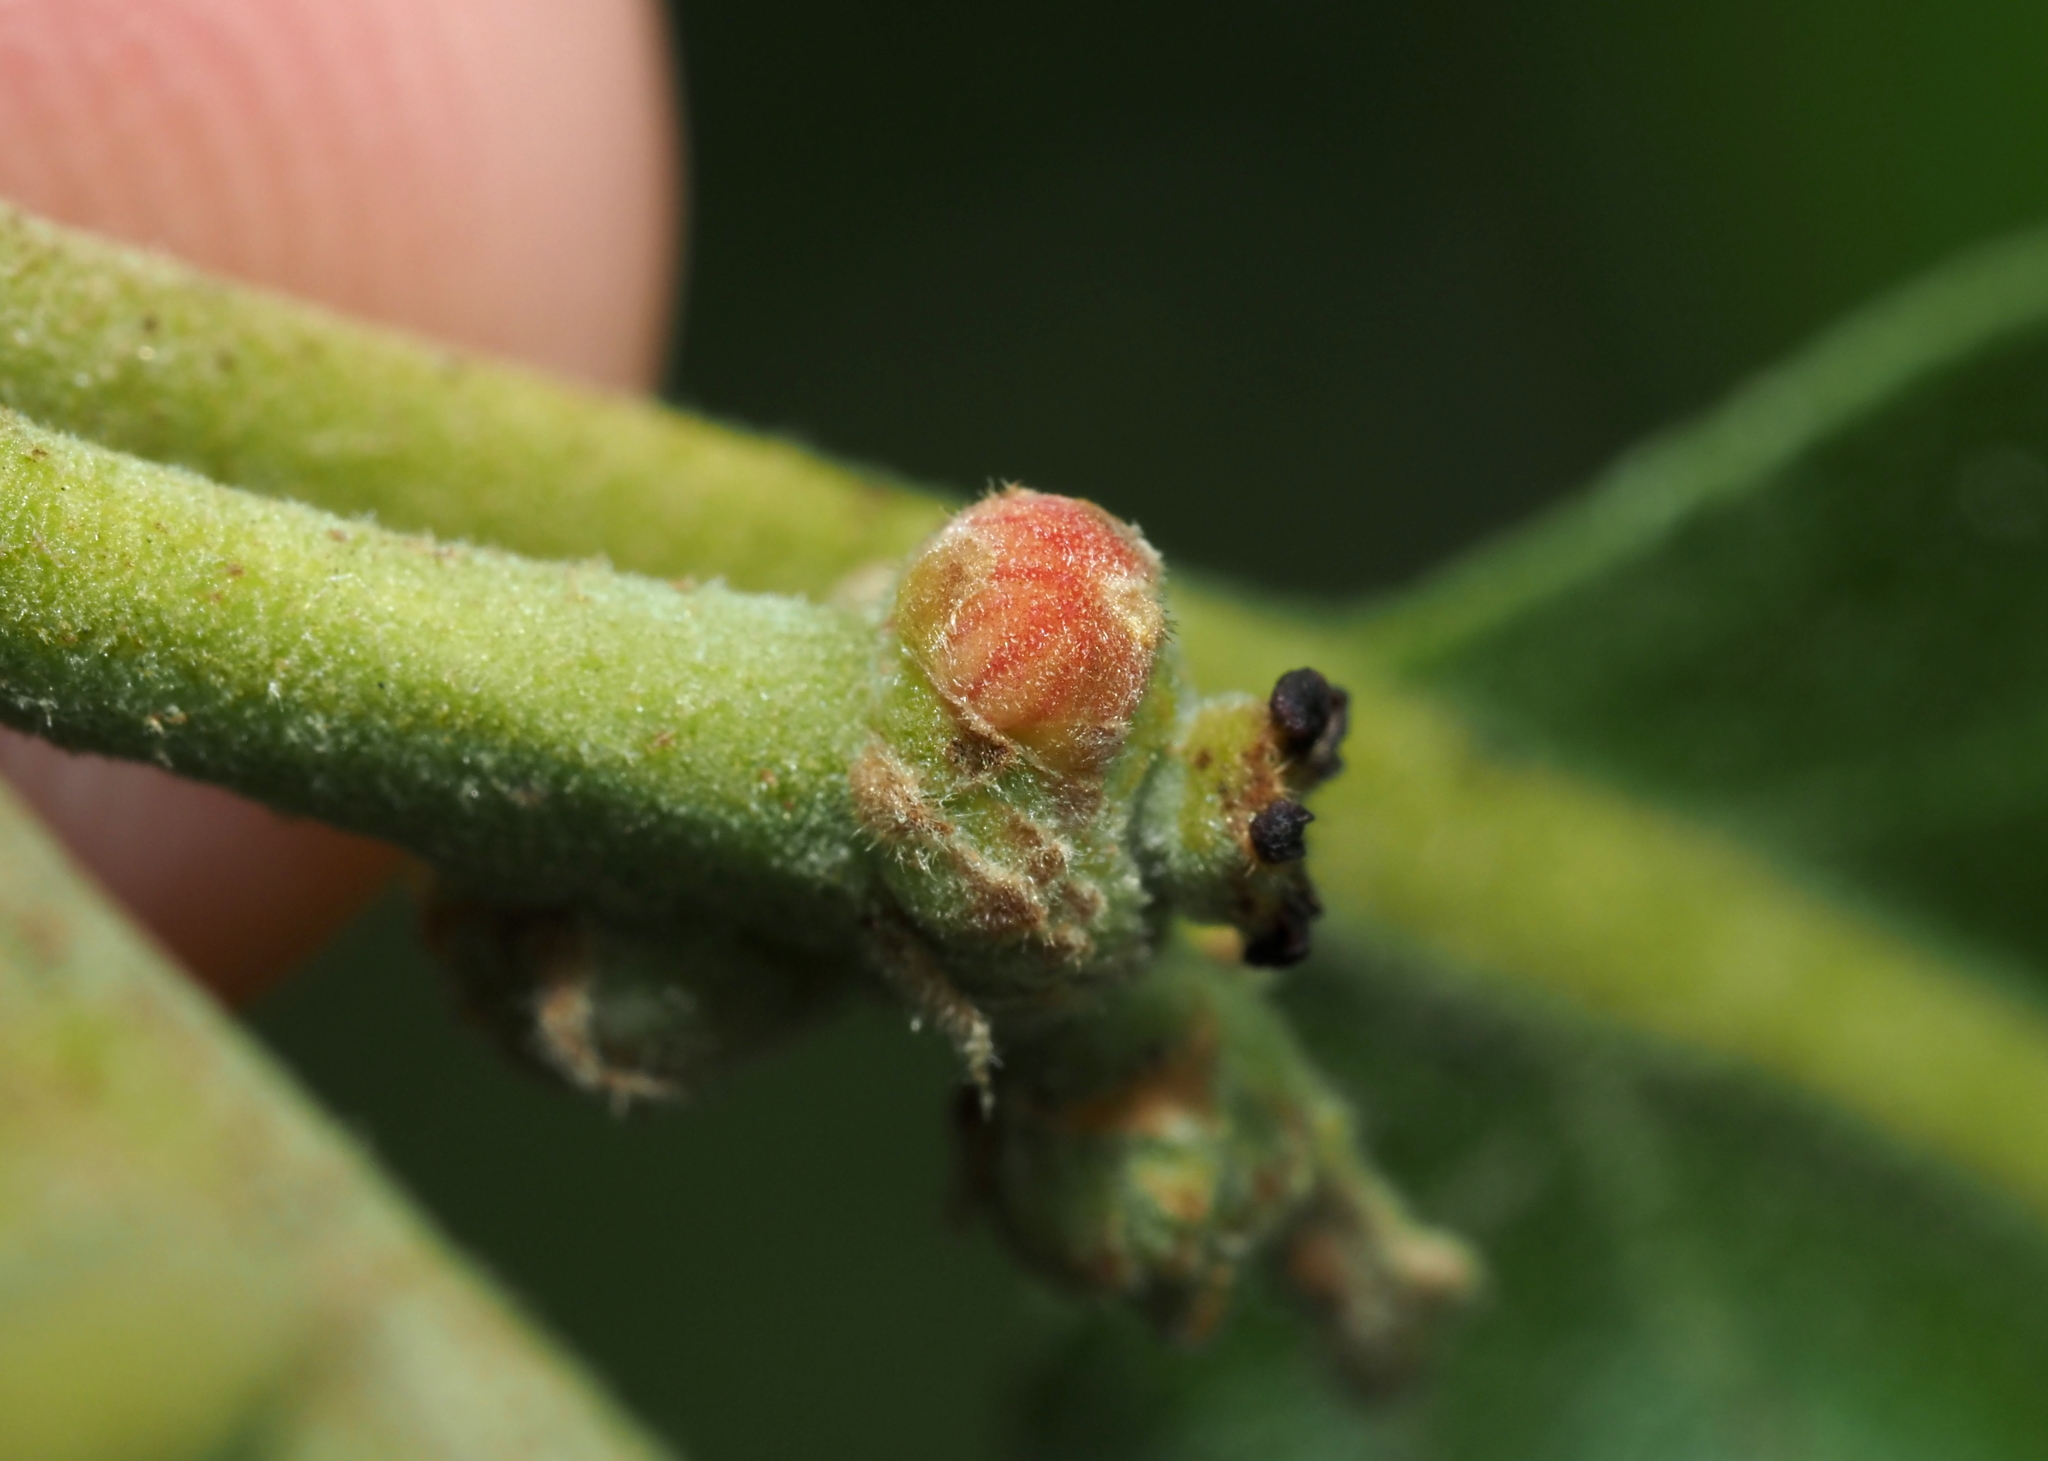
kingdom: Animalia
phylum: Arthropoda
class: Insecta
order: Hymenoptera
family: Cynipidae
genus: Callirhytis
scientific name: Callirhytis
